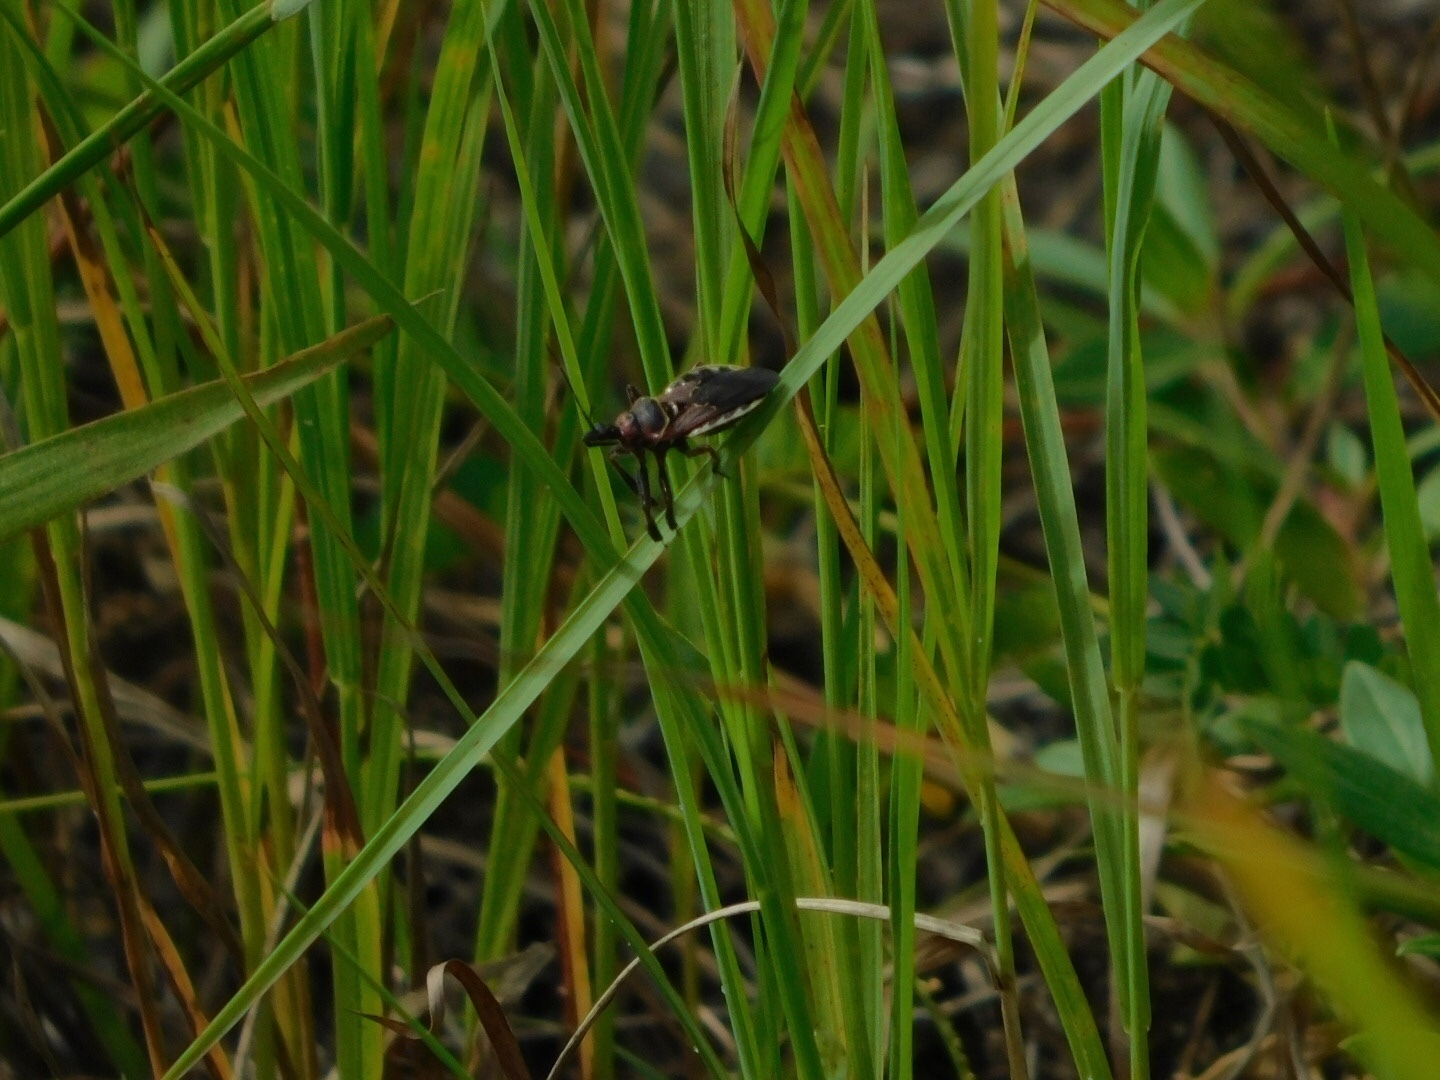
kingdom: Animalia
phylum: Arthropoda
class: Insecta
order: Hemiptera
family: Reduviidae
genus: Apiomerus
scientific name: Apiomerus floridensis
